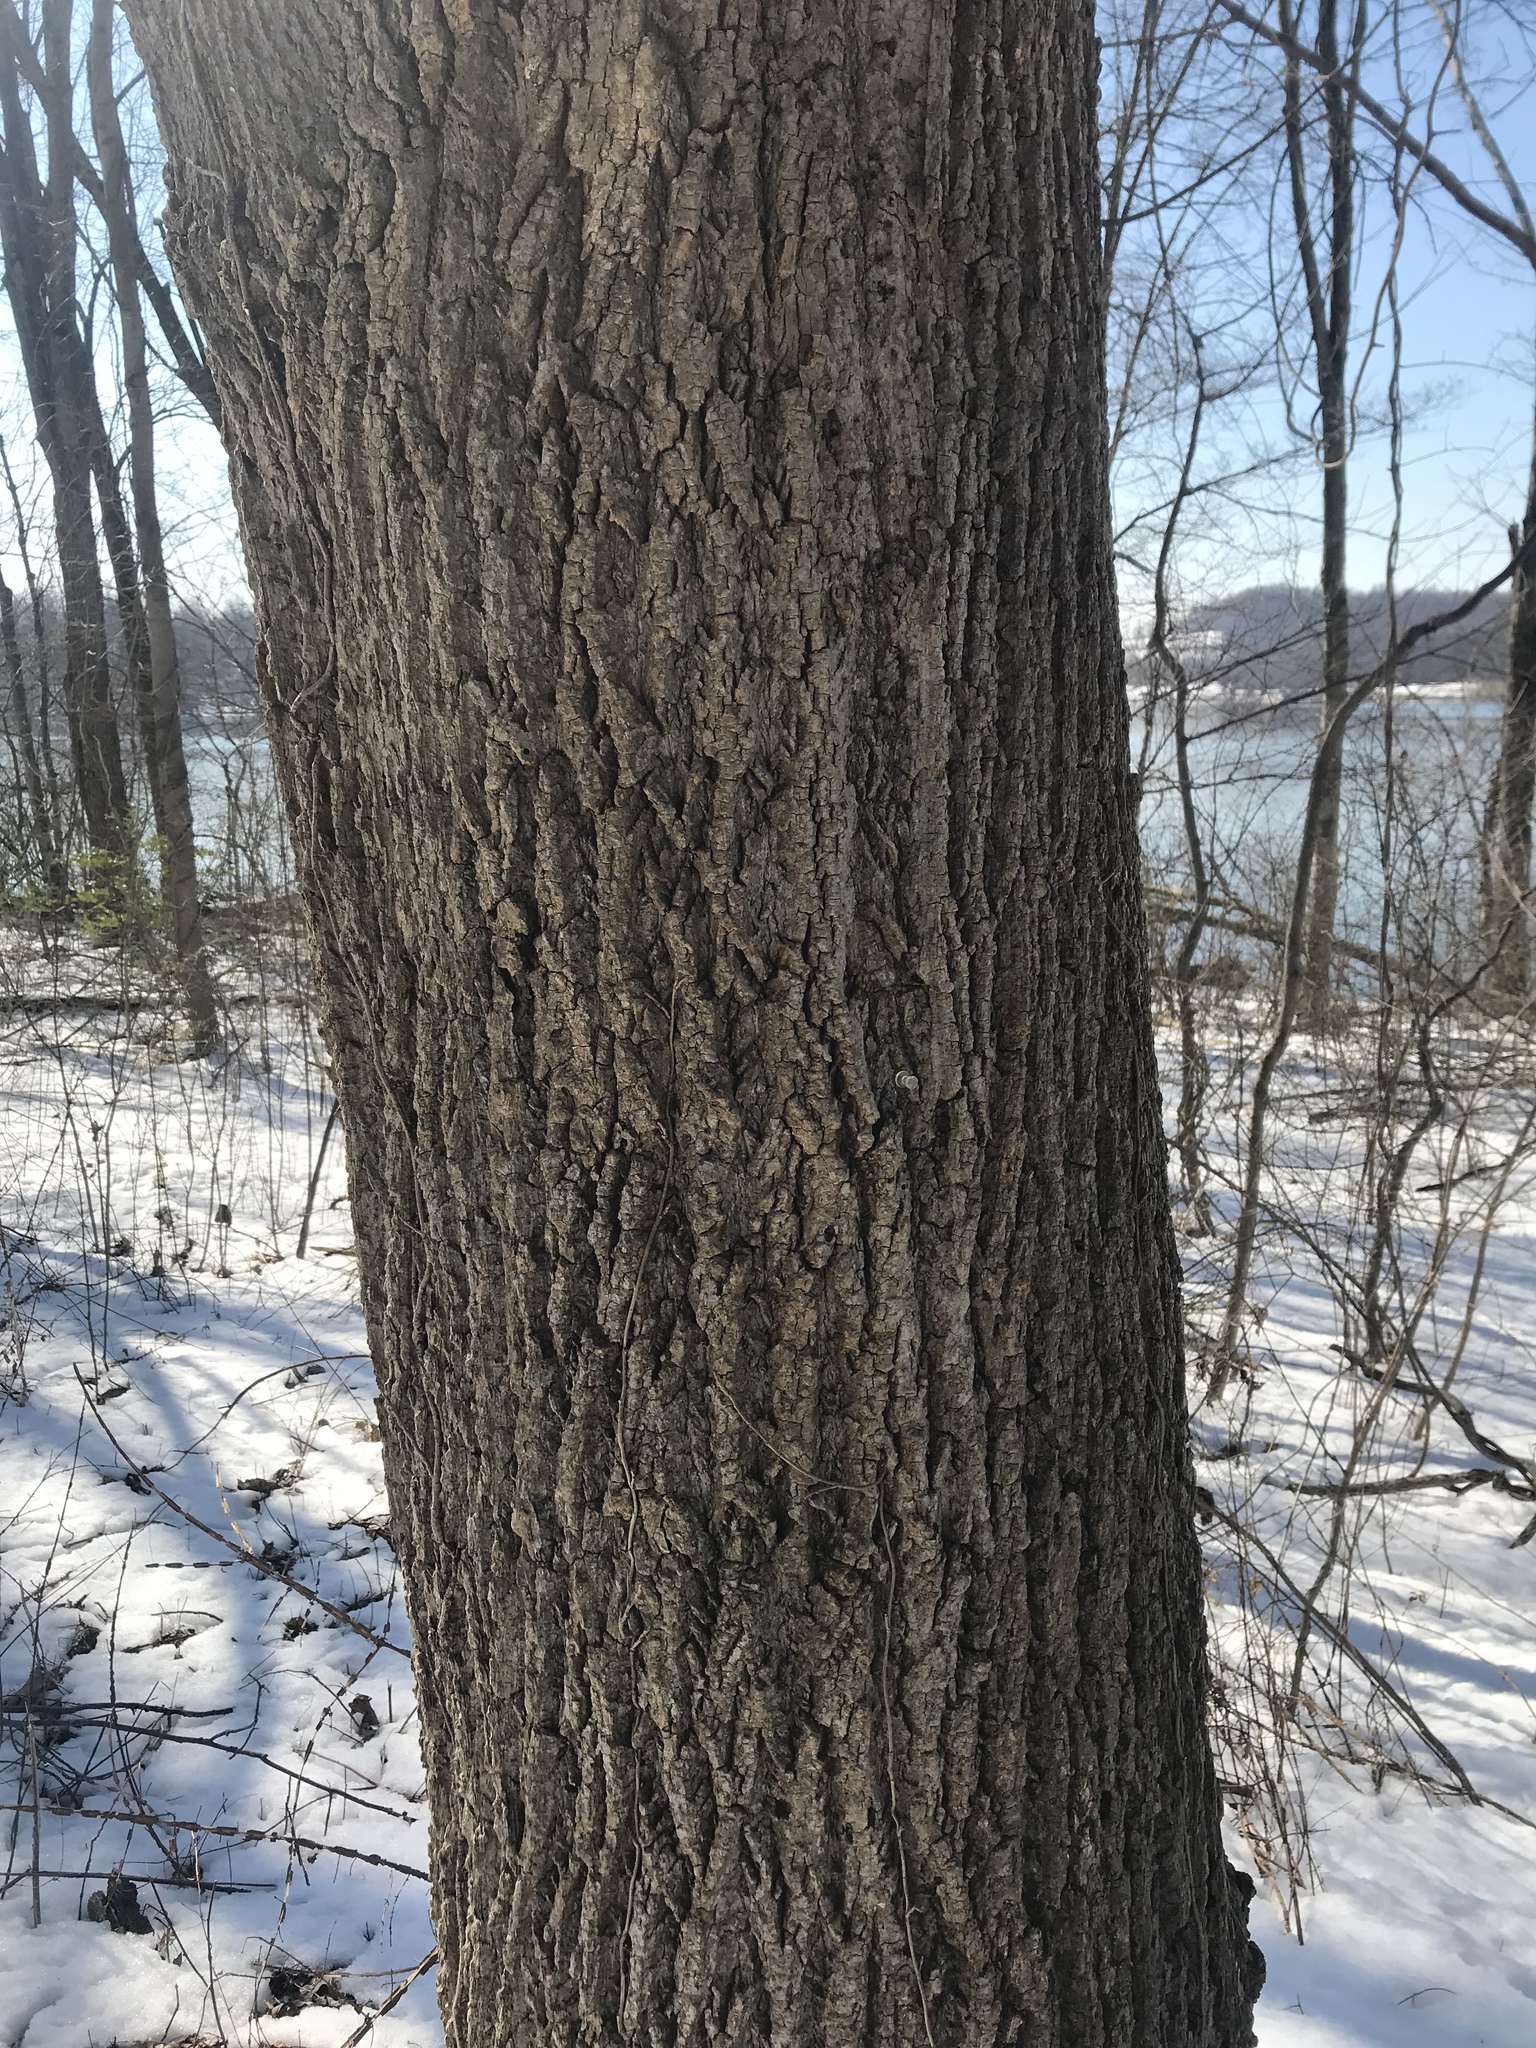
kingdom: Plantae
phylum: Tracheophyta
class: Magnoliopsida
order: Magnoliales
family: Magnoliaceae
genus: Liriodendron
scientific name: Liriodendron tulipifera
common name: Tulip tree
